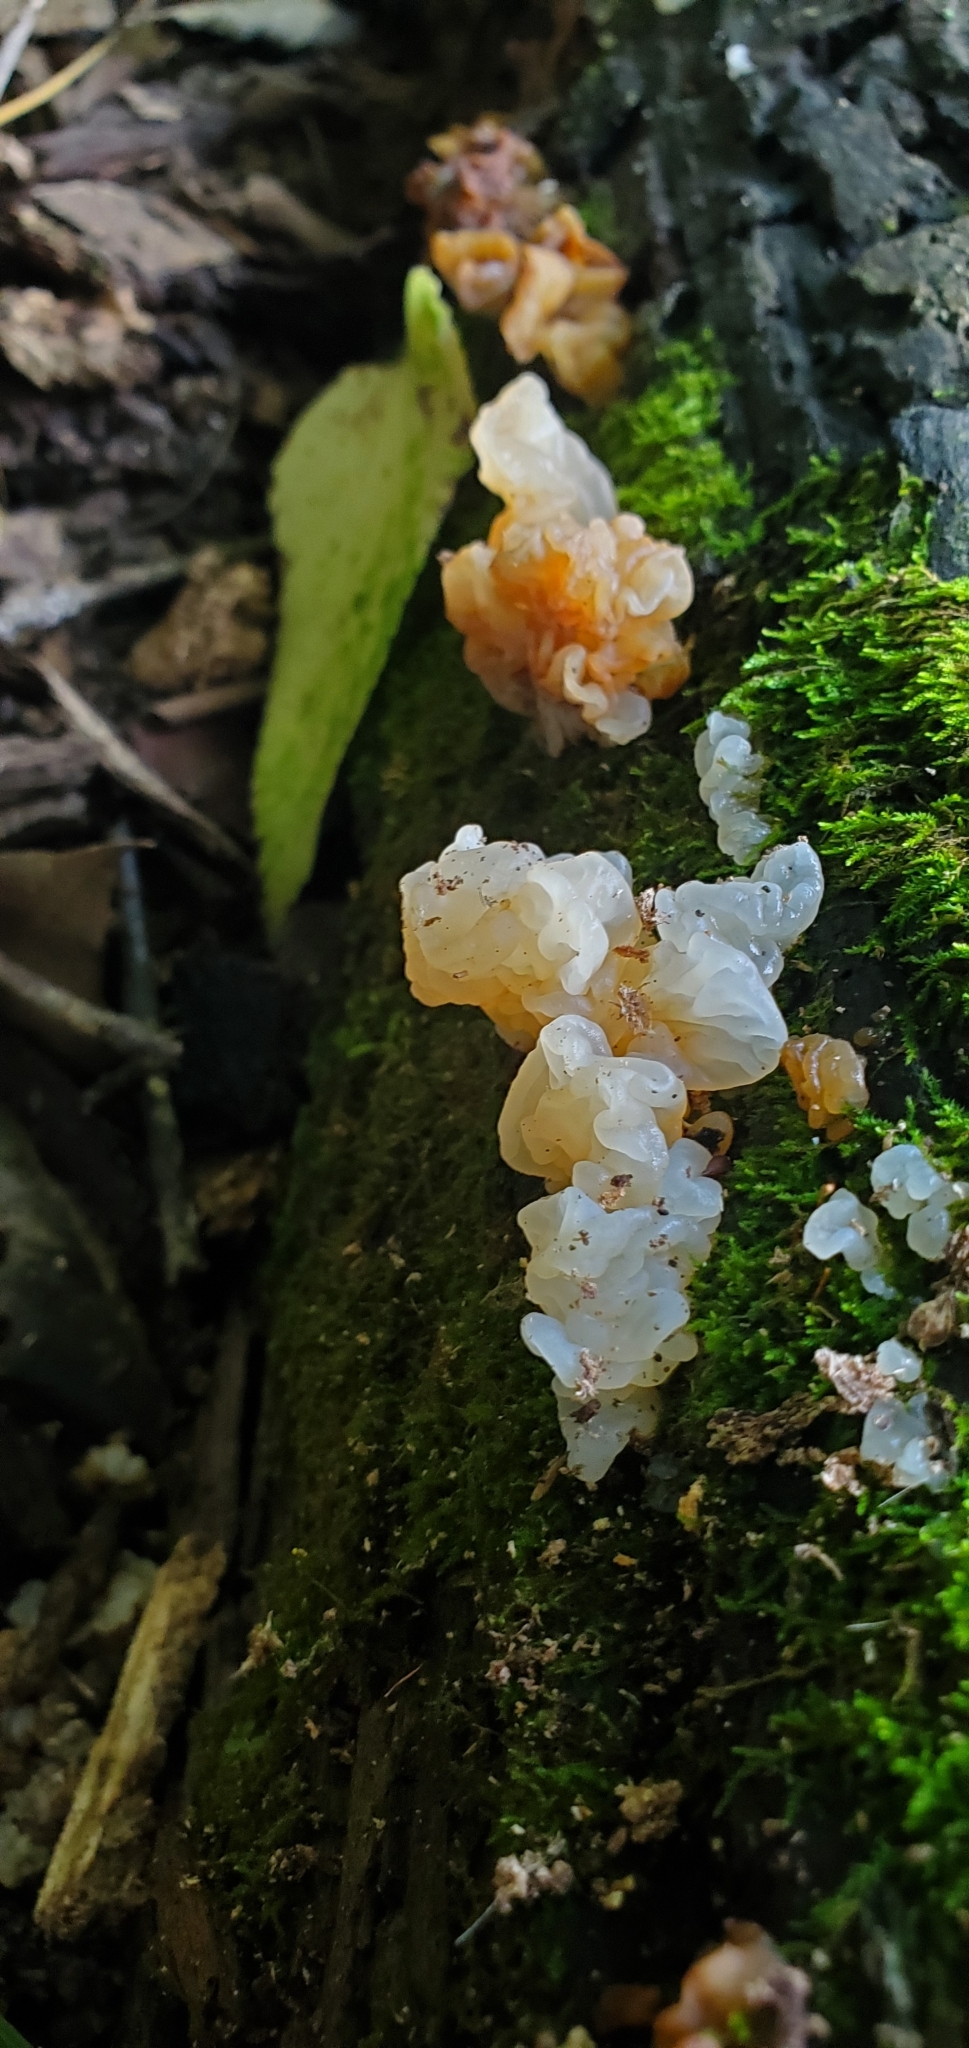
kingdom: Fungi
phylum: Basidiomycota
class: Agaricomycetes
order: Auriculariales
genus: Ductifera
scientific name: Ductifera pululahuana
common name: White jelly fungus
